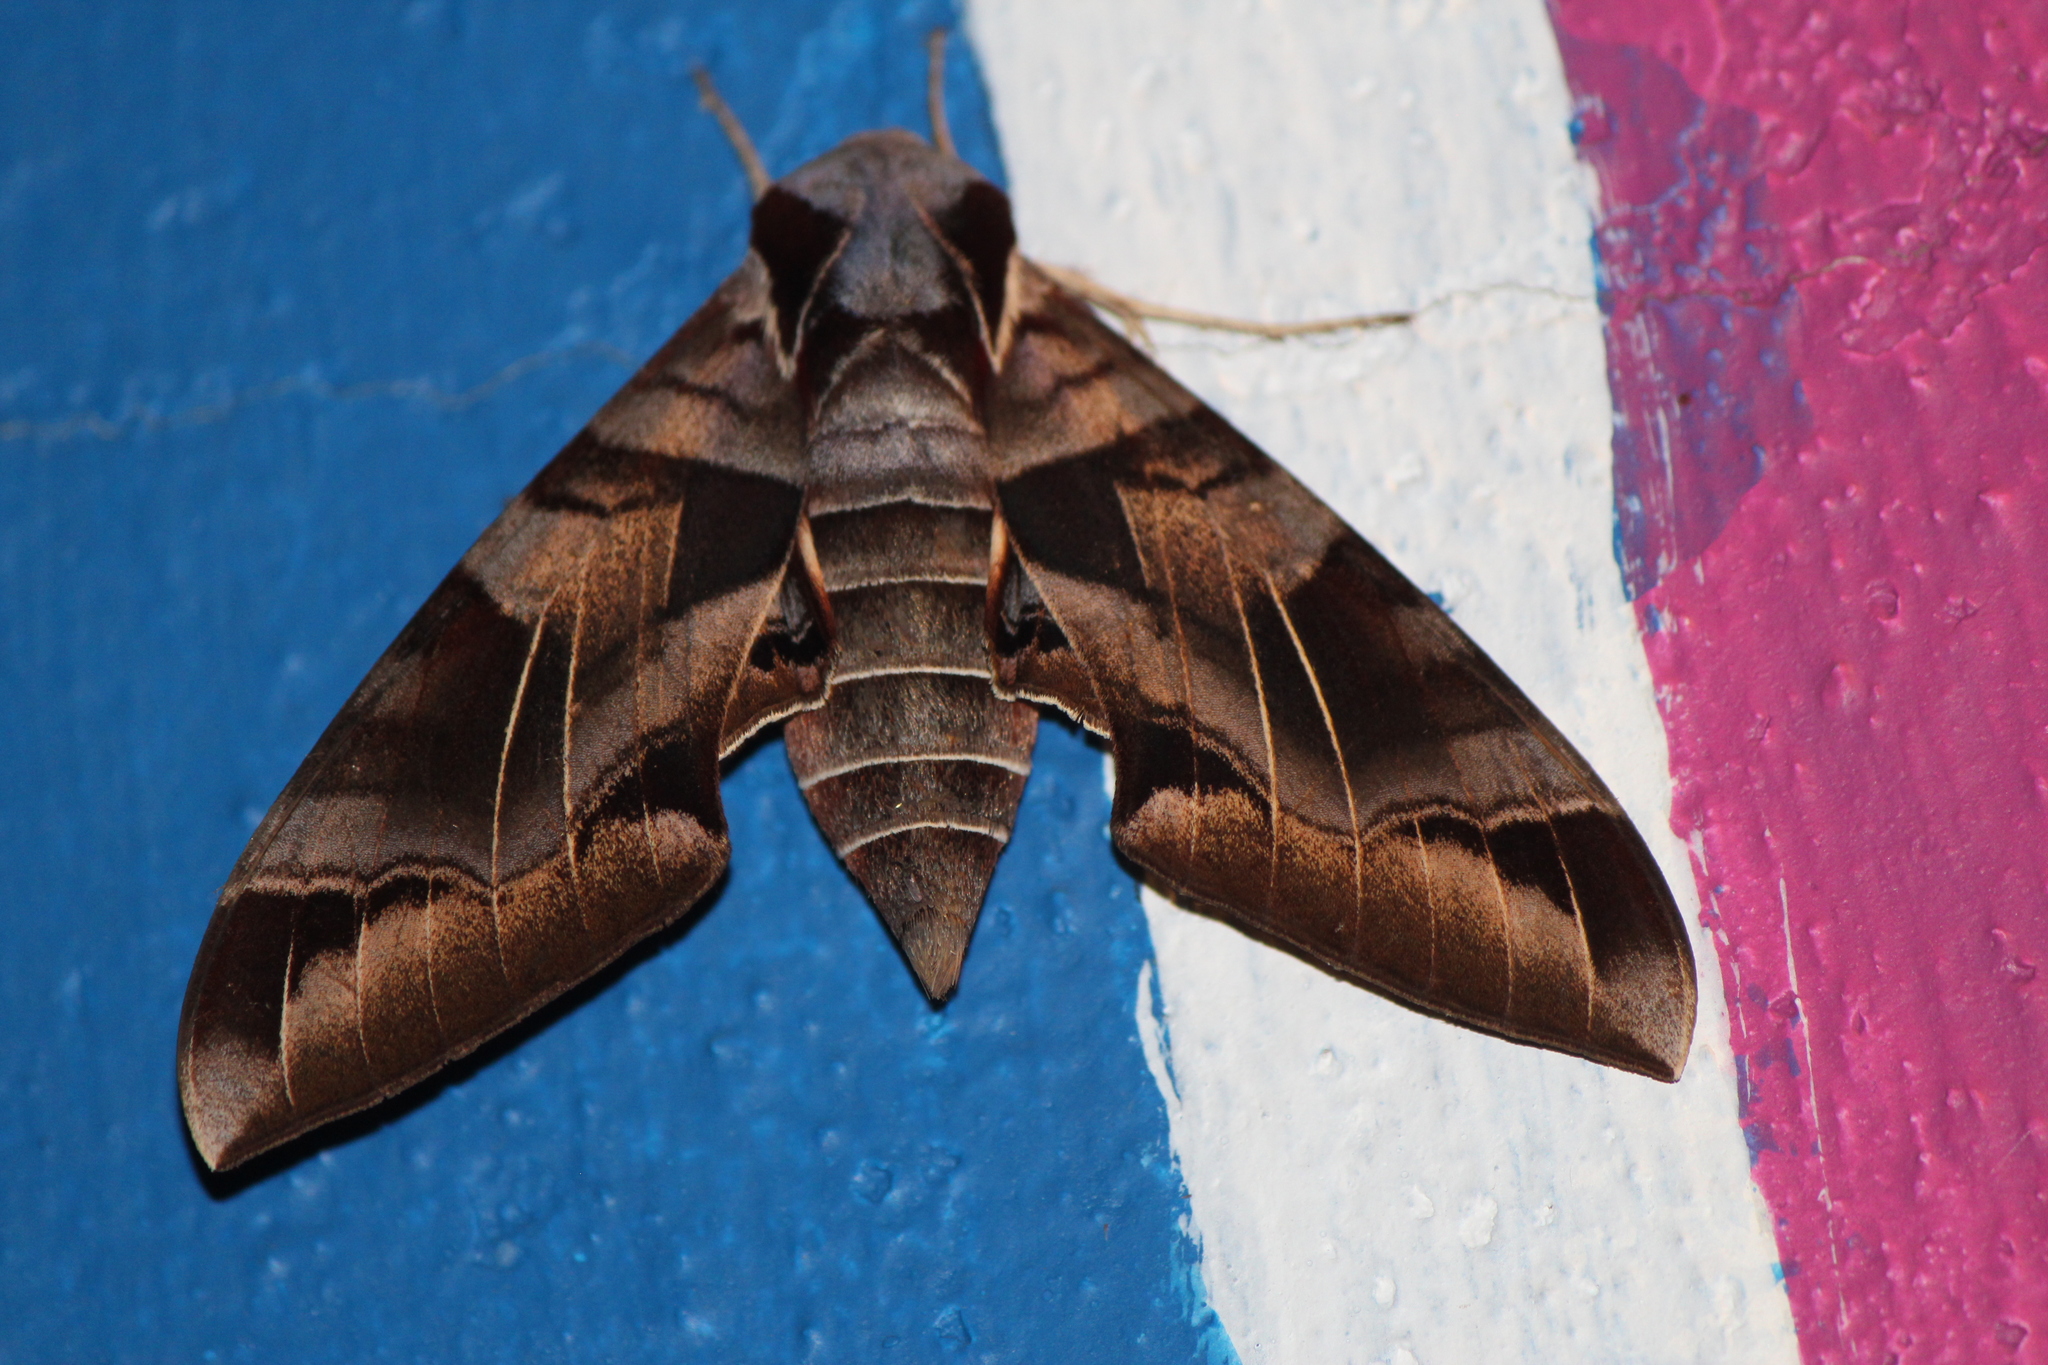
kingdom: Animalia
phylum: Arthropoda
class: Insecta
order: Lepidoptera
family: Sphingidae
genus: Eumorpha
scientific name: Eumorpha typhon
